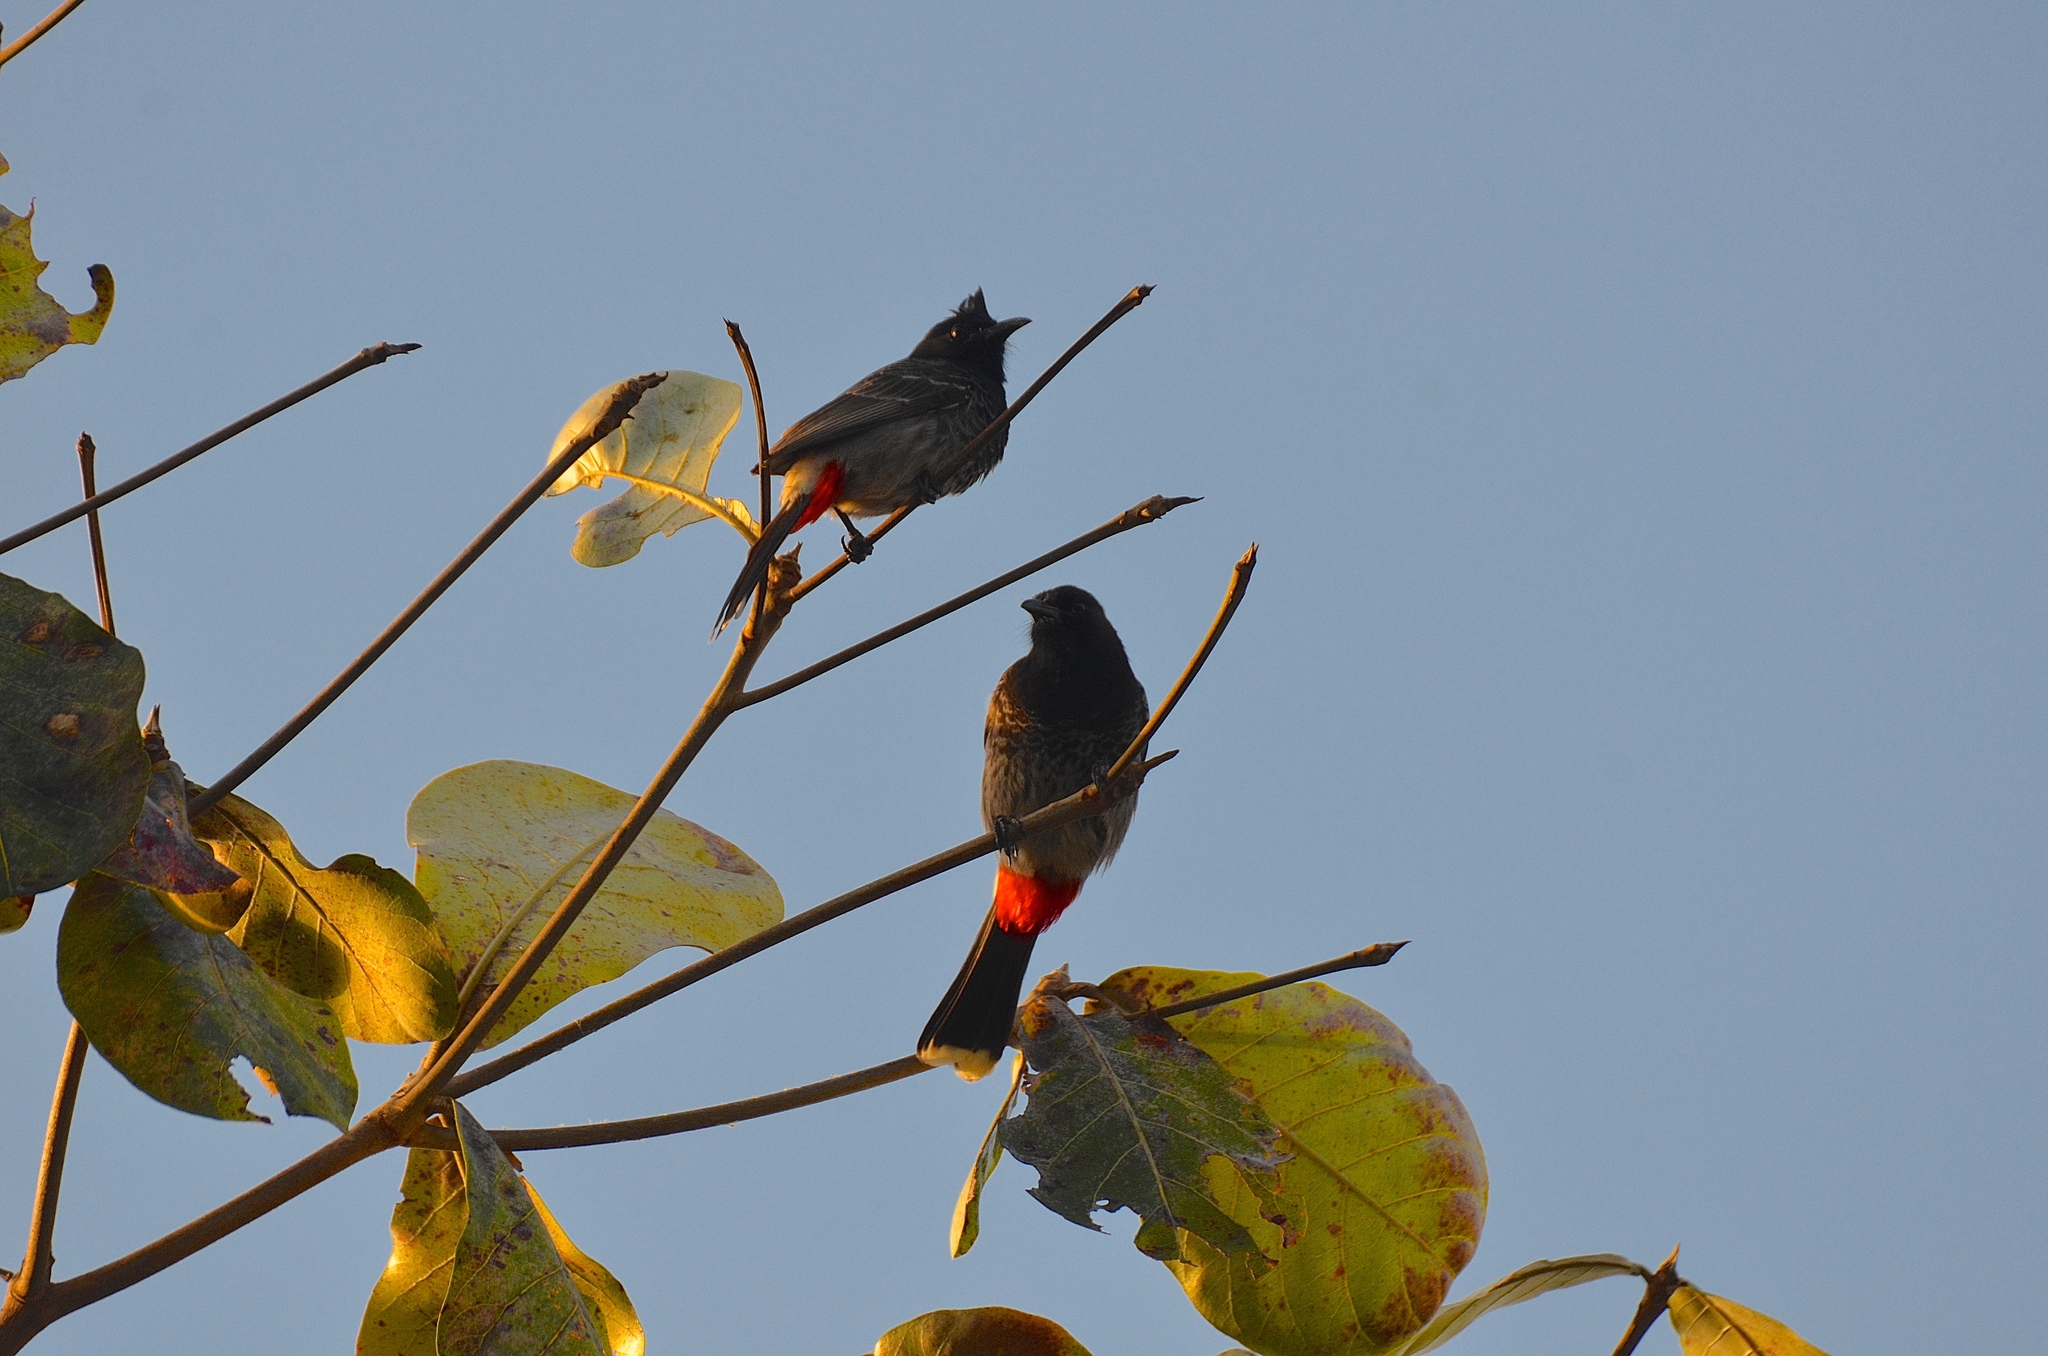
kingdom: Animalia
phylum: Chordata
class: Aves
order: Passeriformes
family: Pycnonotidae
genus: Pycnonotus
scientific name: Pycnonotus cafer
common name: Red-vented bulbul
